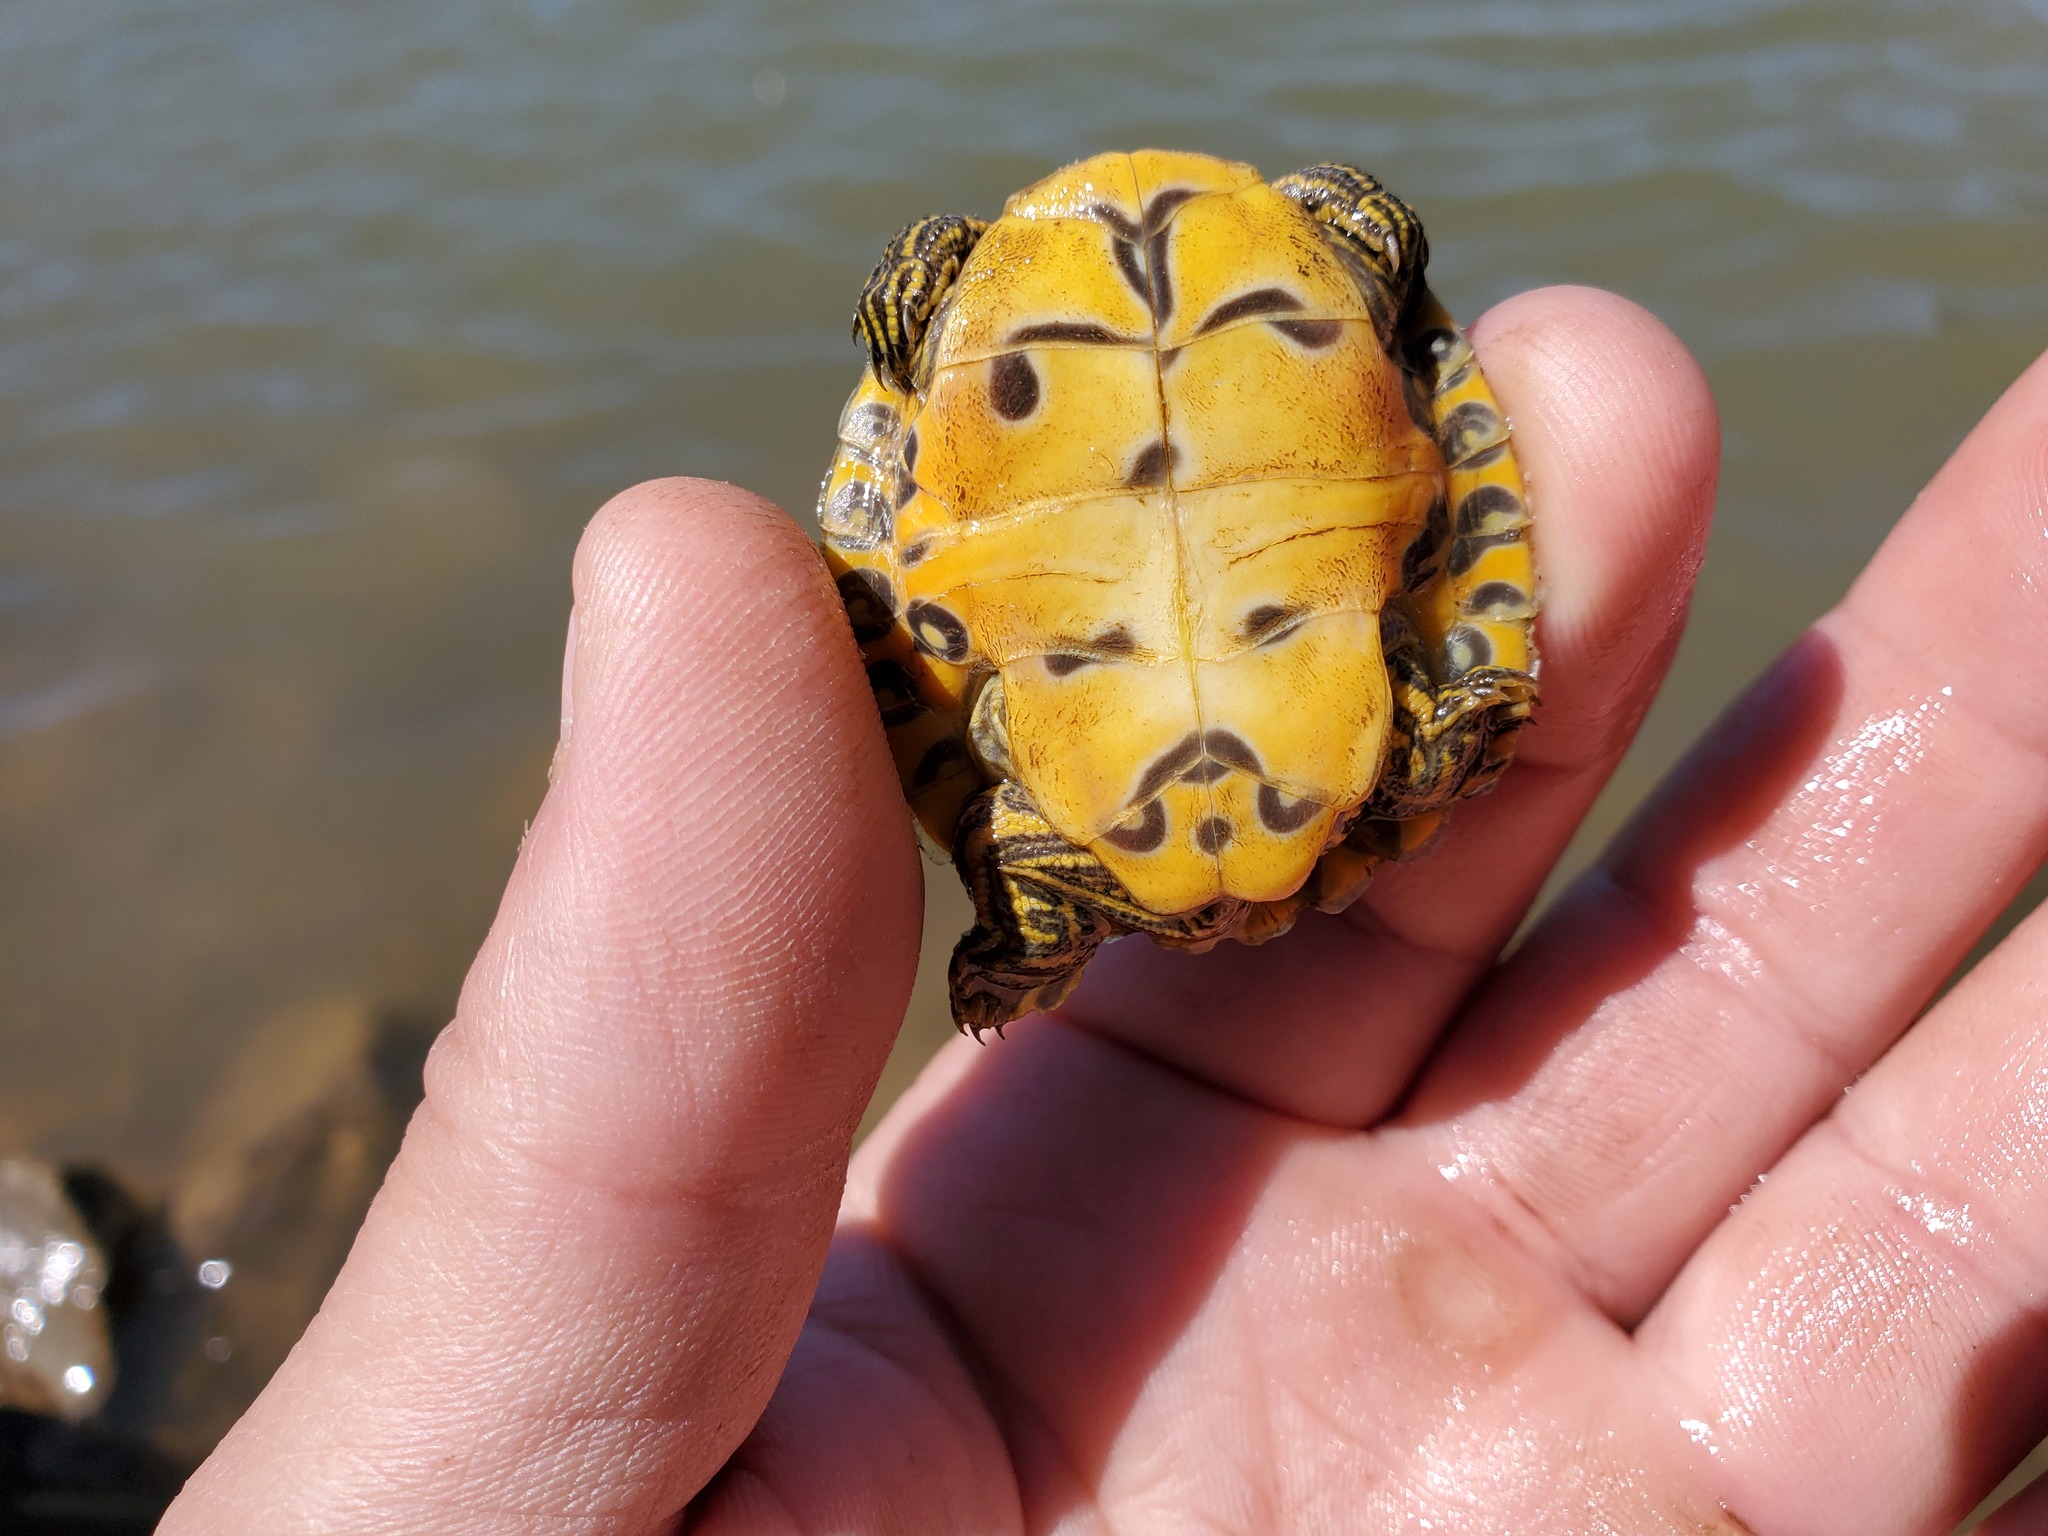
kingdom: Animalia
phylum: Chordata
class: Testudines
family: Emydidae
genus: Pseudemys
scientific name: Pseudemys concinna
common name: Eastern river cooter
